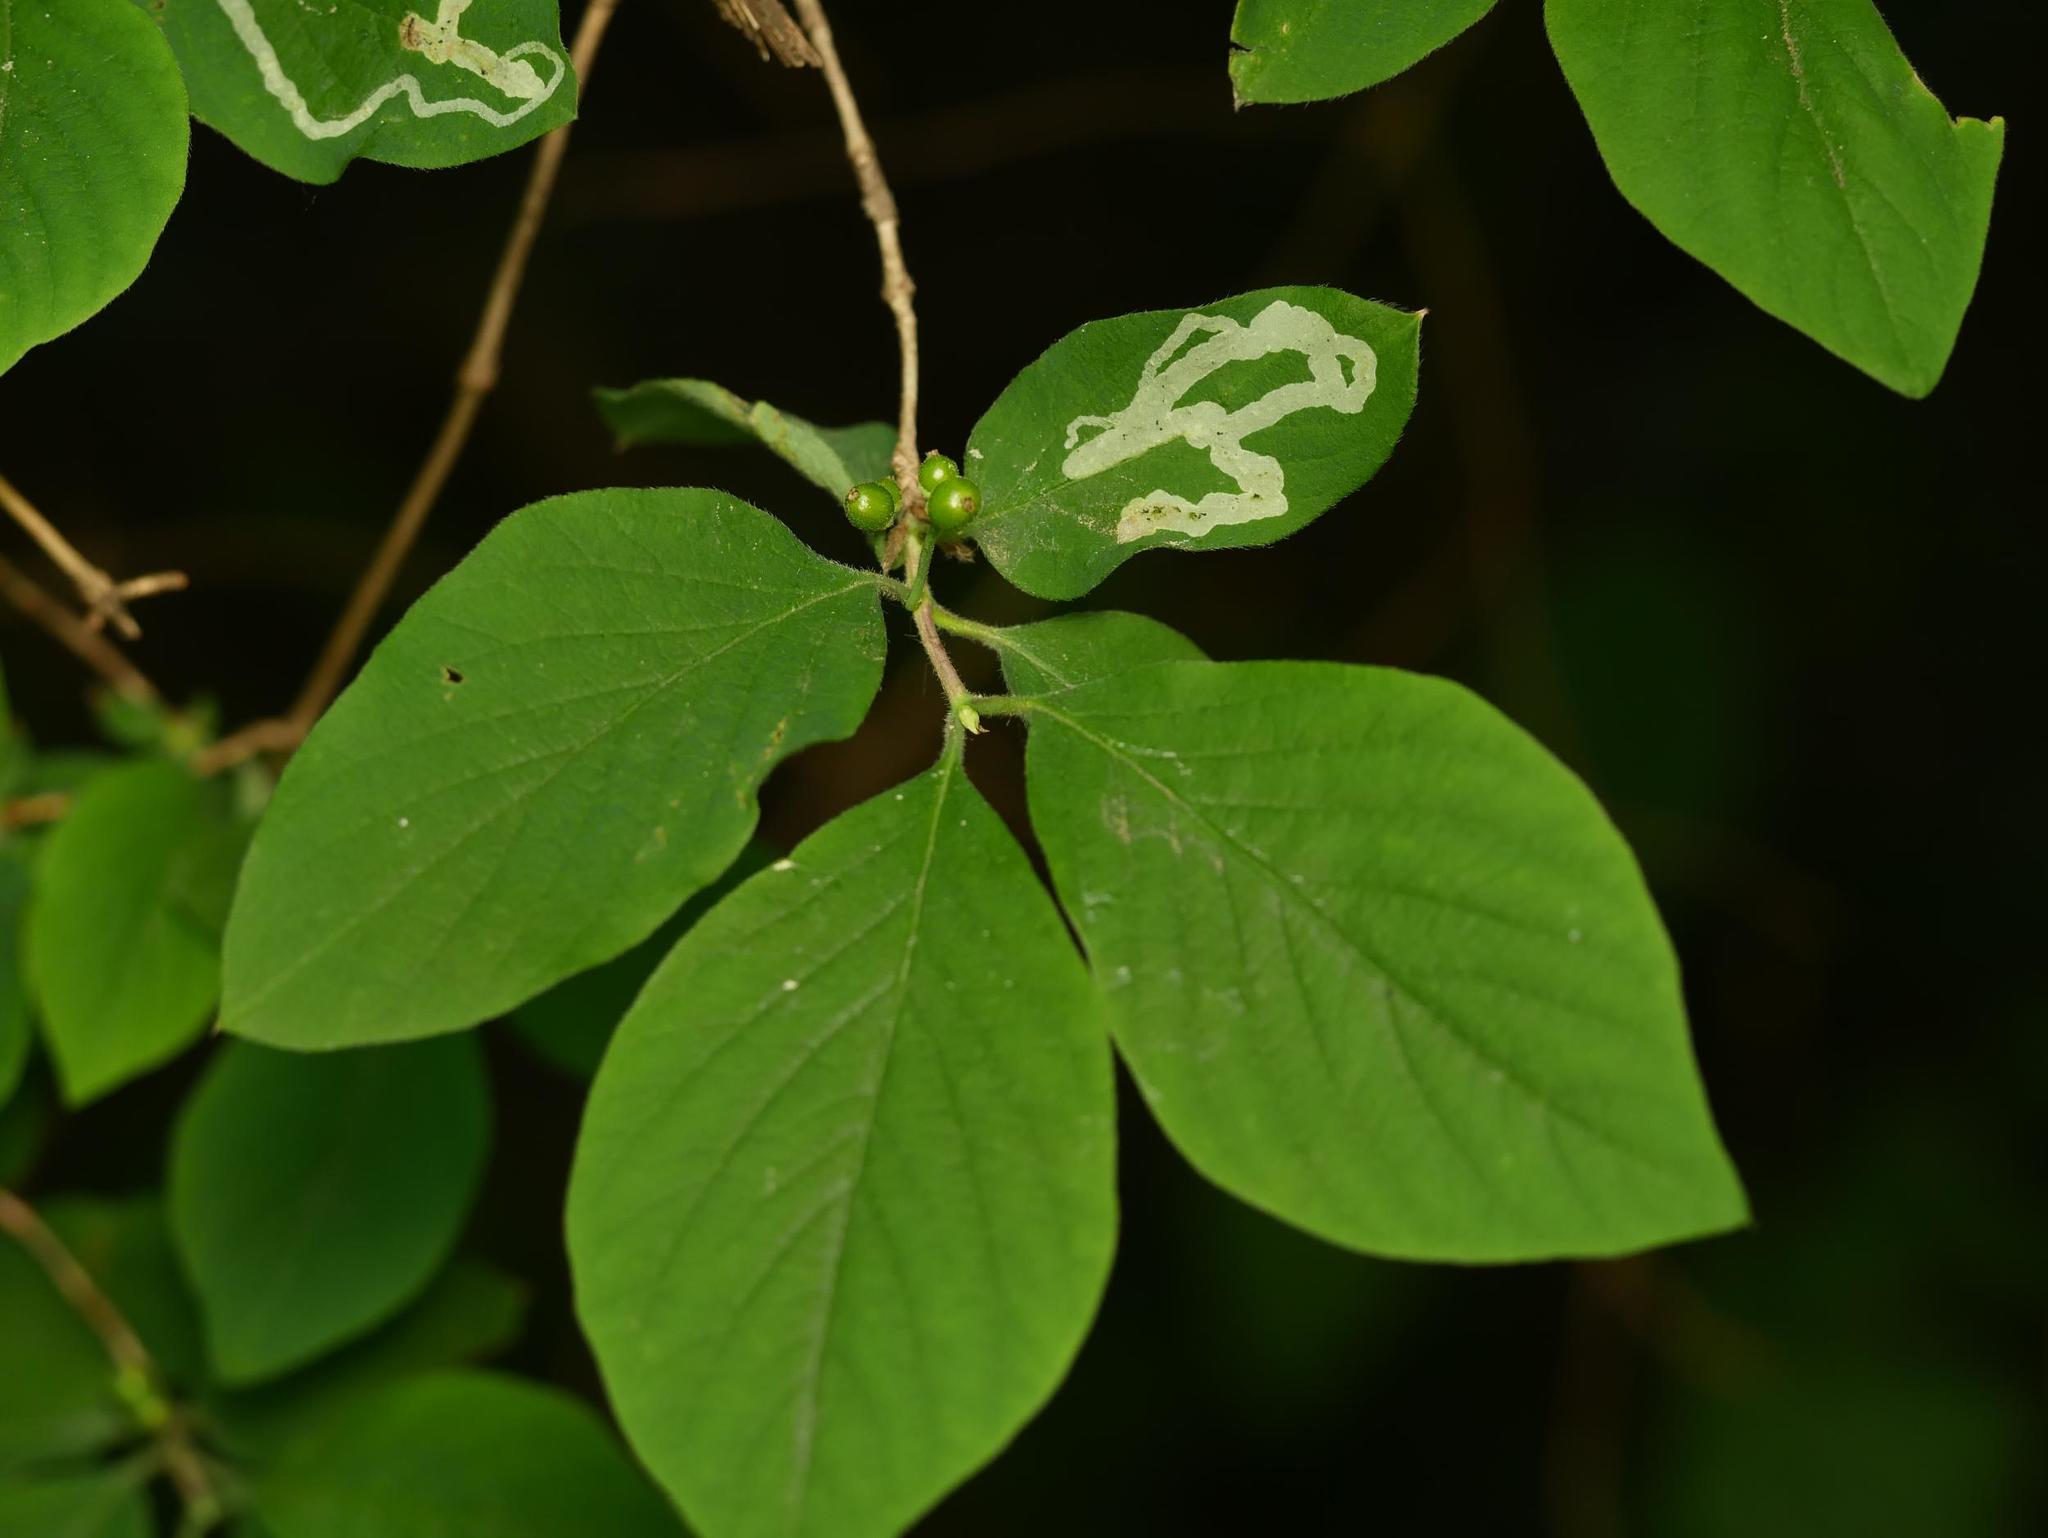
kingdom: Plantae
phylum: Tracheophyta
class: Magnoliopsida
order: Dipsacales
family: Caprifoliaceae
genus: Lonicera
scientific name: Lonicera xylosteum
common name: Fly honeysuckle
